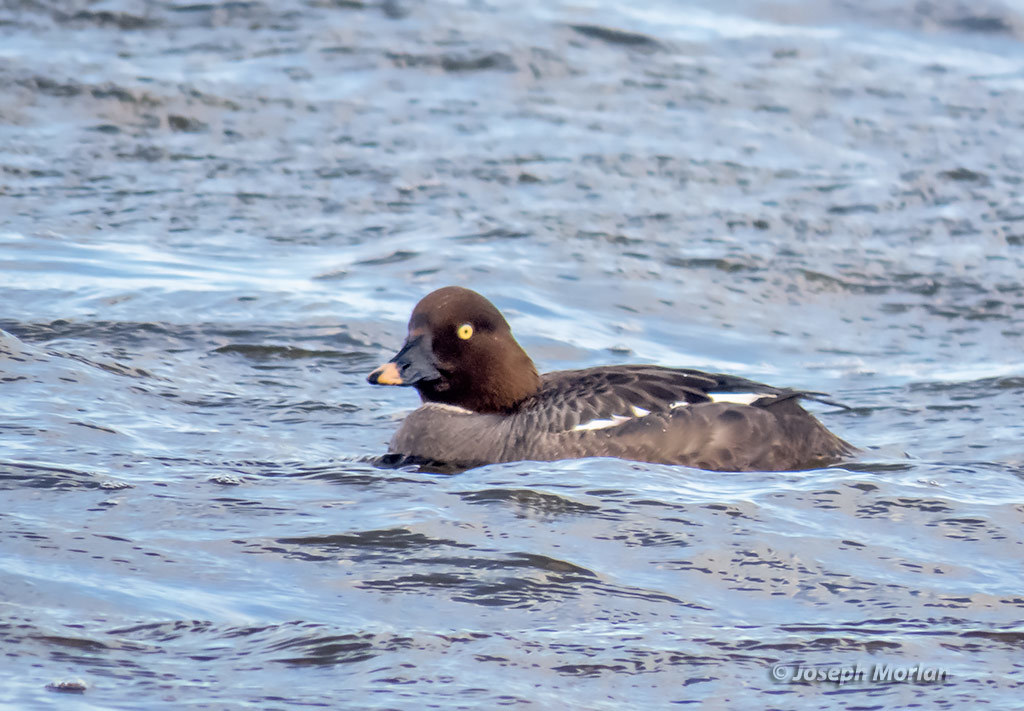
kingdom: Animalia
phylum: Chordata
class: Aves
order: Anseriformes
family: Anatidae
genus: Bucephala
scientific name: Bucephala clangula
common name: Common goldeneye
